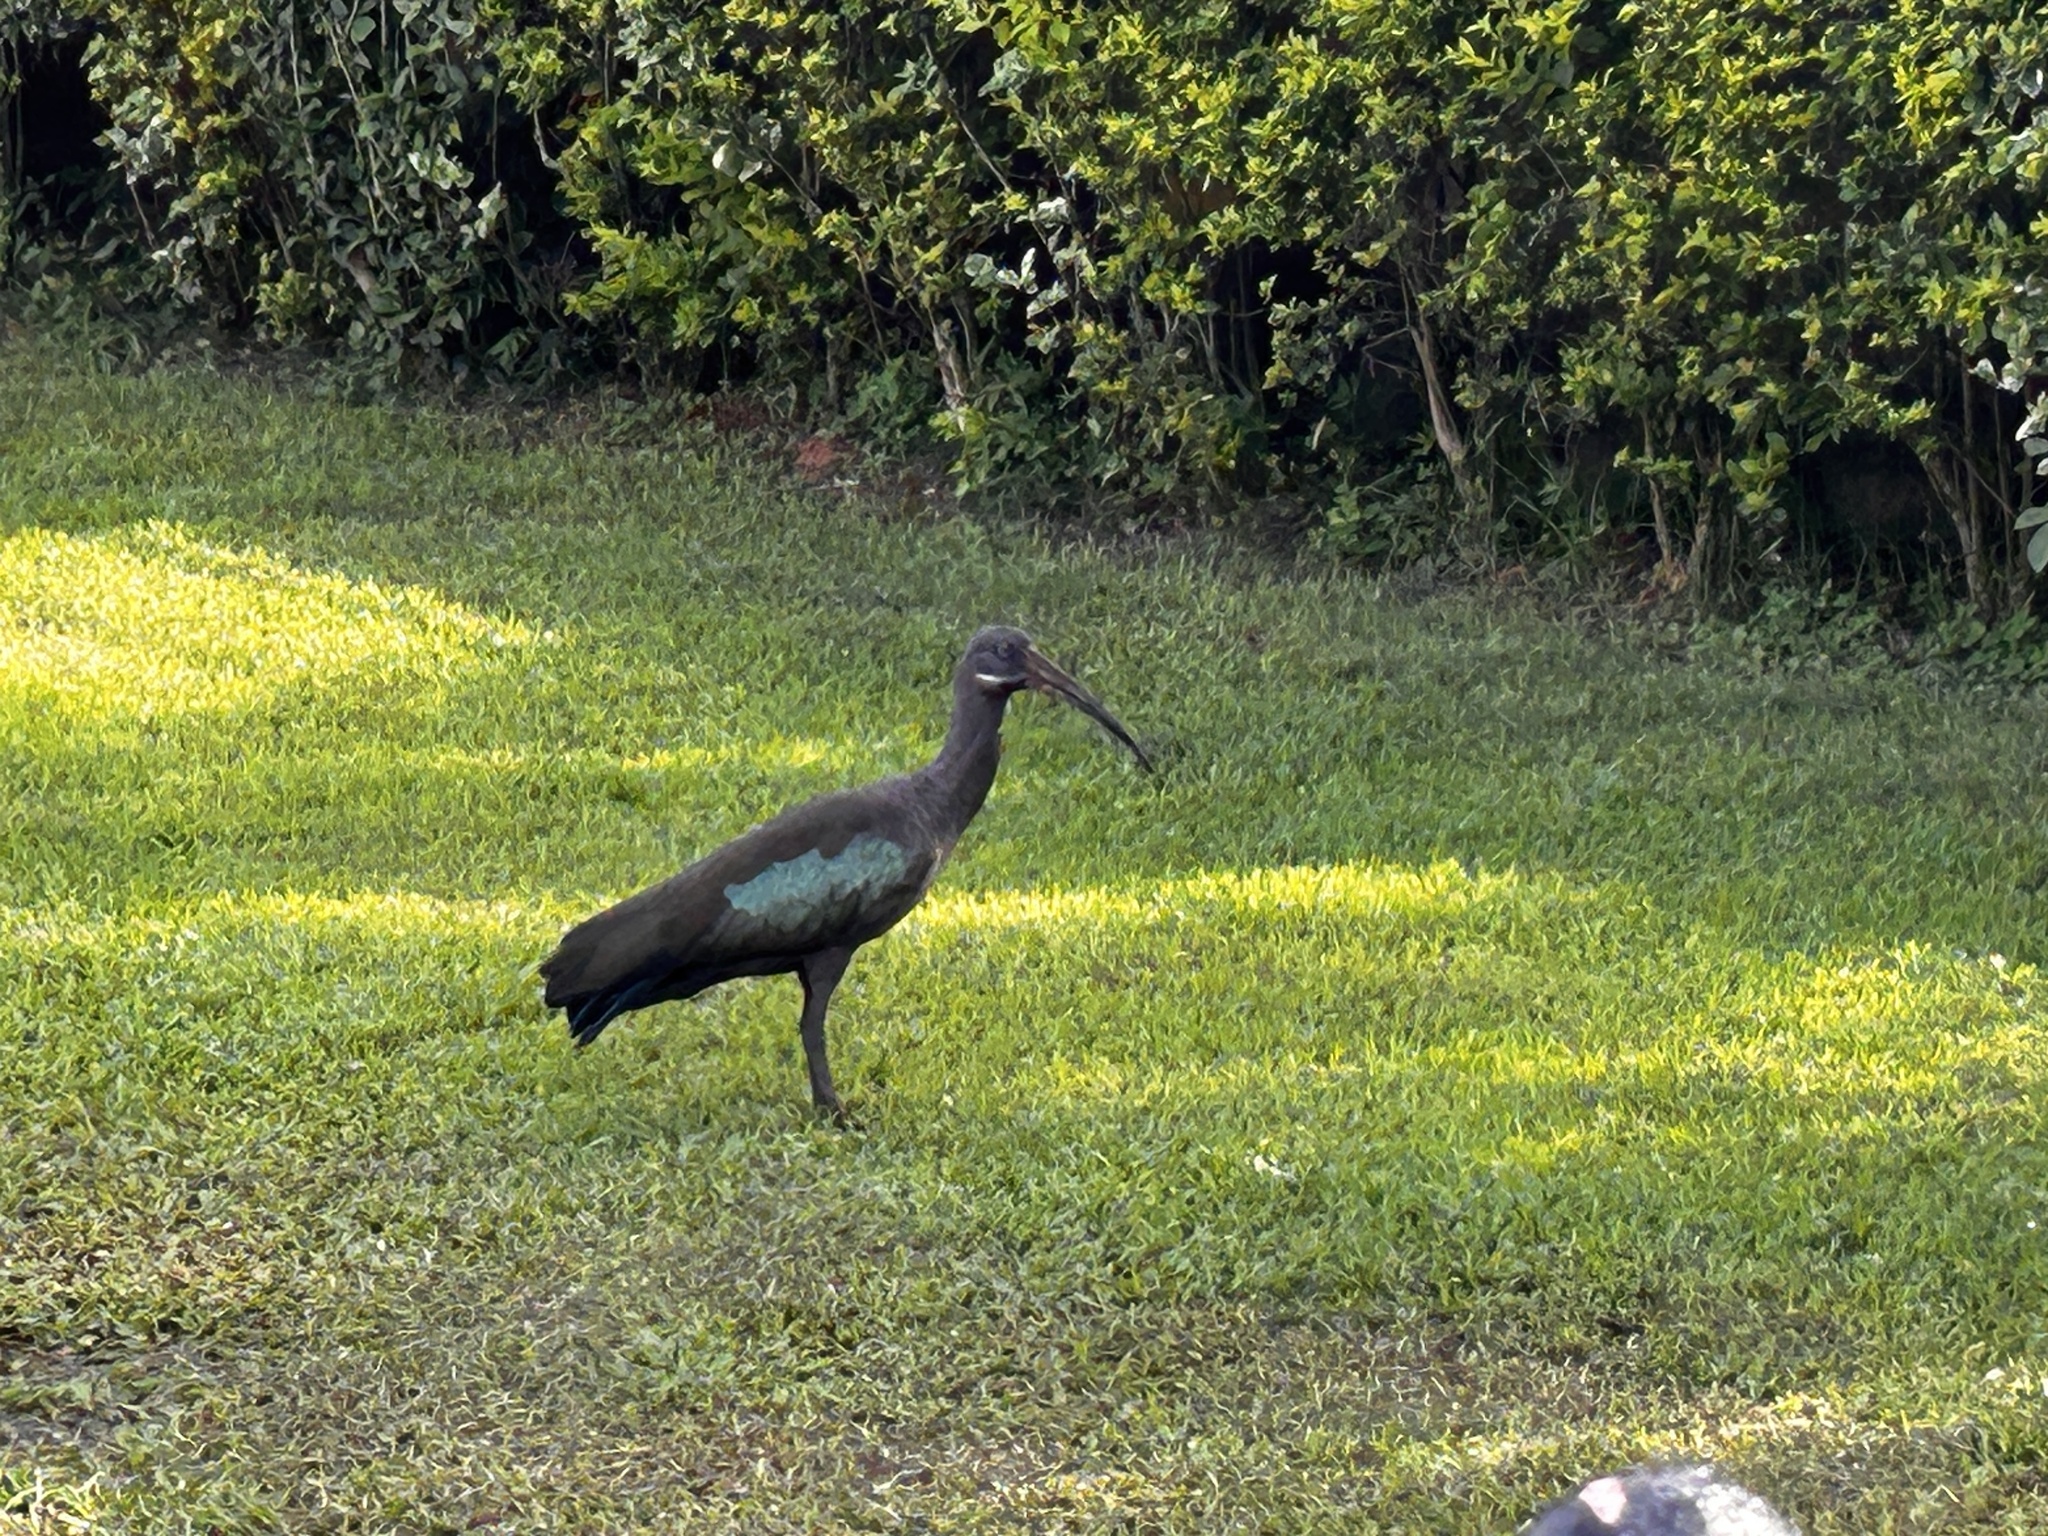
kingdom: Animalia
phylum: Chordata
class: Aves
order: Pelecaniformes
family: Threskiornithidae
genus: Bostrychia
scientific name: Bostrychia hagedash
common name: Hadada ibis
